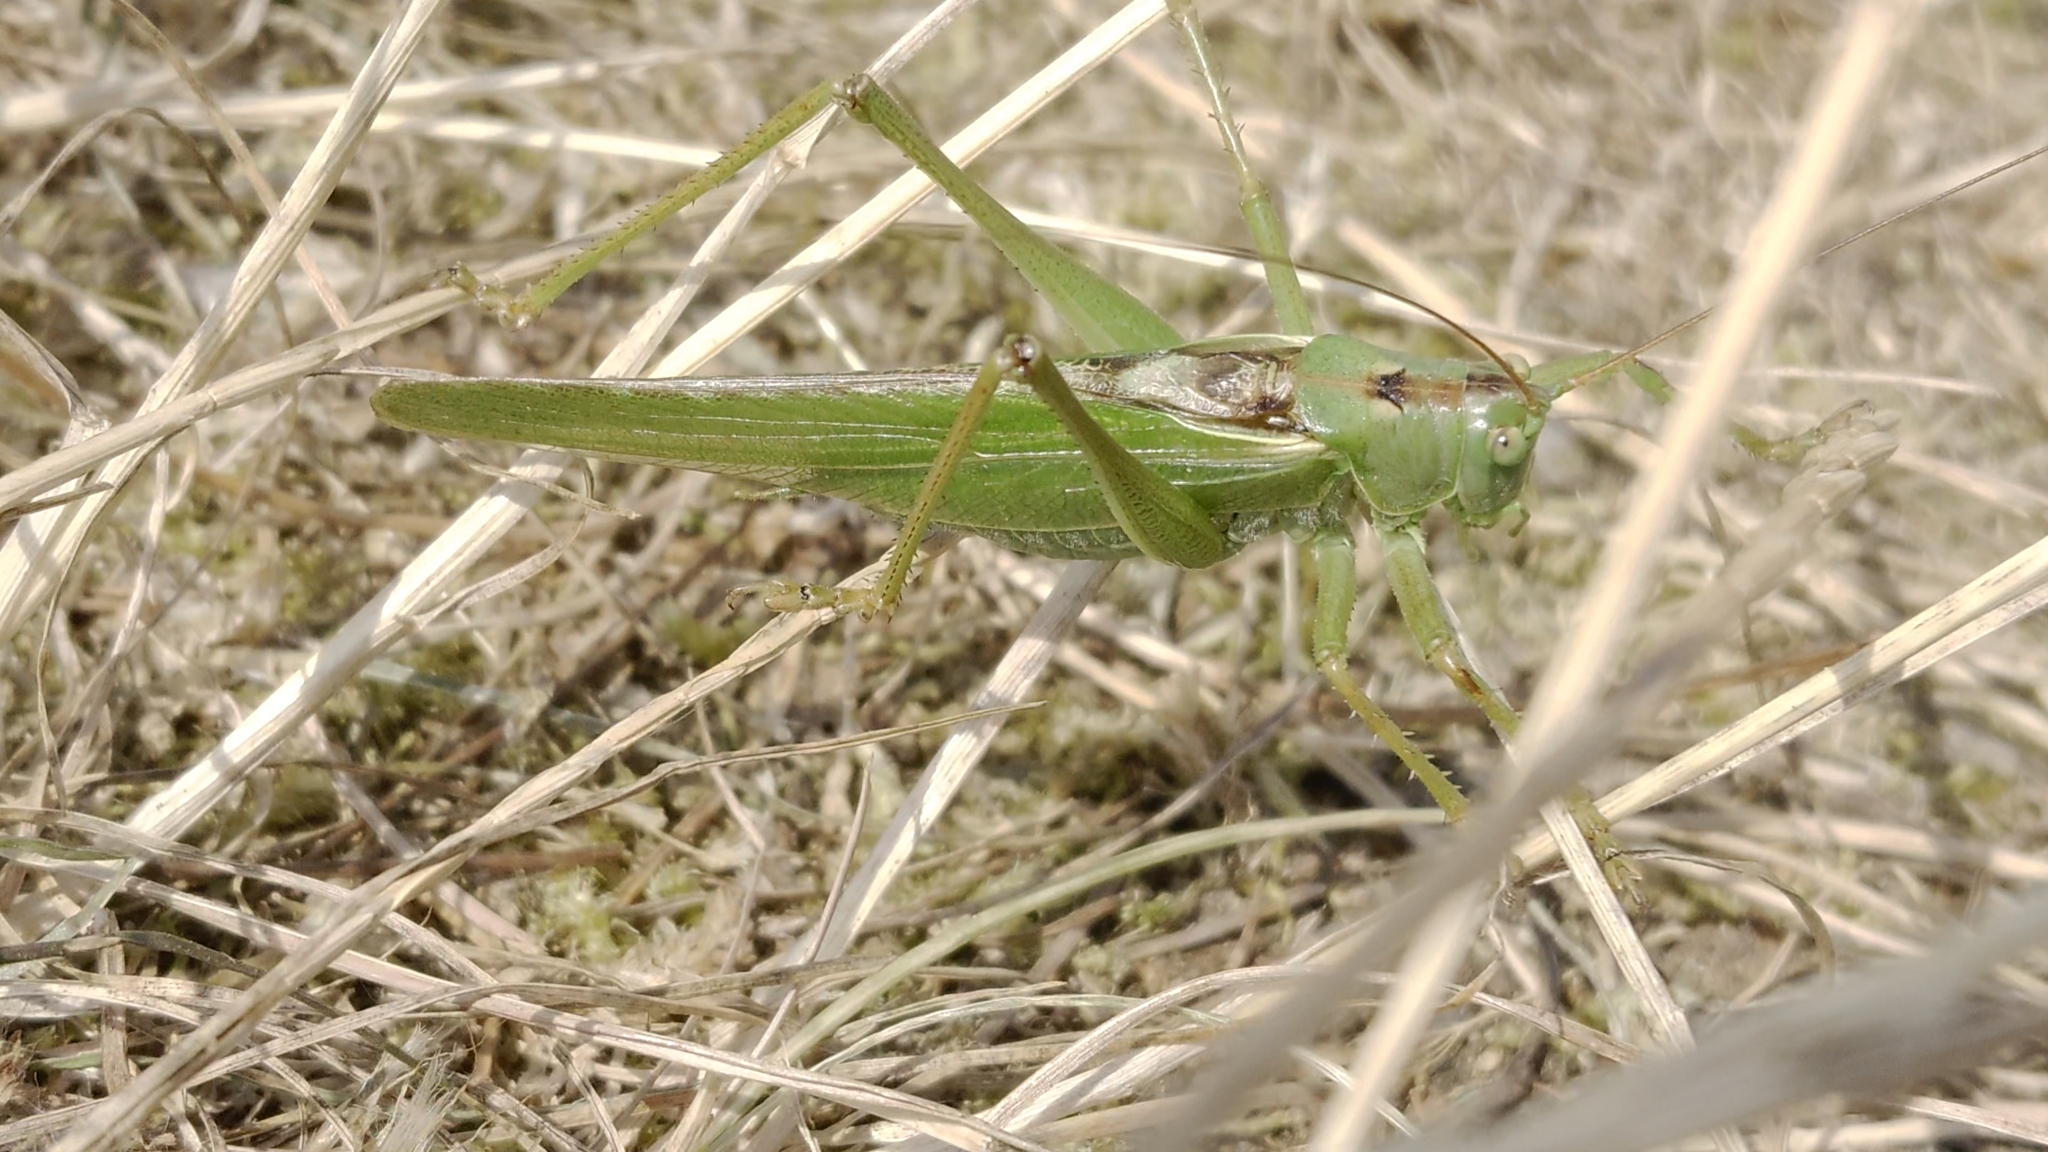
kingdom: Animalia
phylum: Arthropoda
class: Insecta
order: Orthoptera
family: Tettigoniidae
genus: Tettigonia
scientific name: Tettigonia viridissima
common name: Great green bush-cricket
